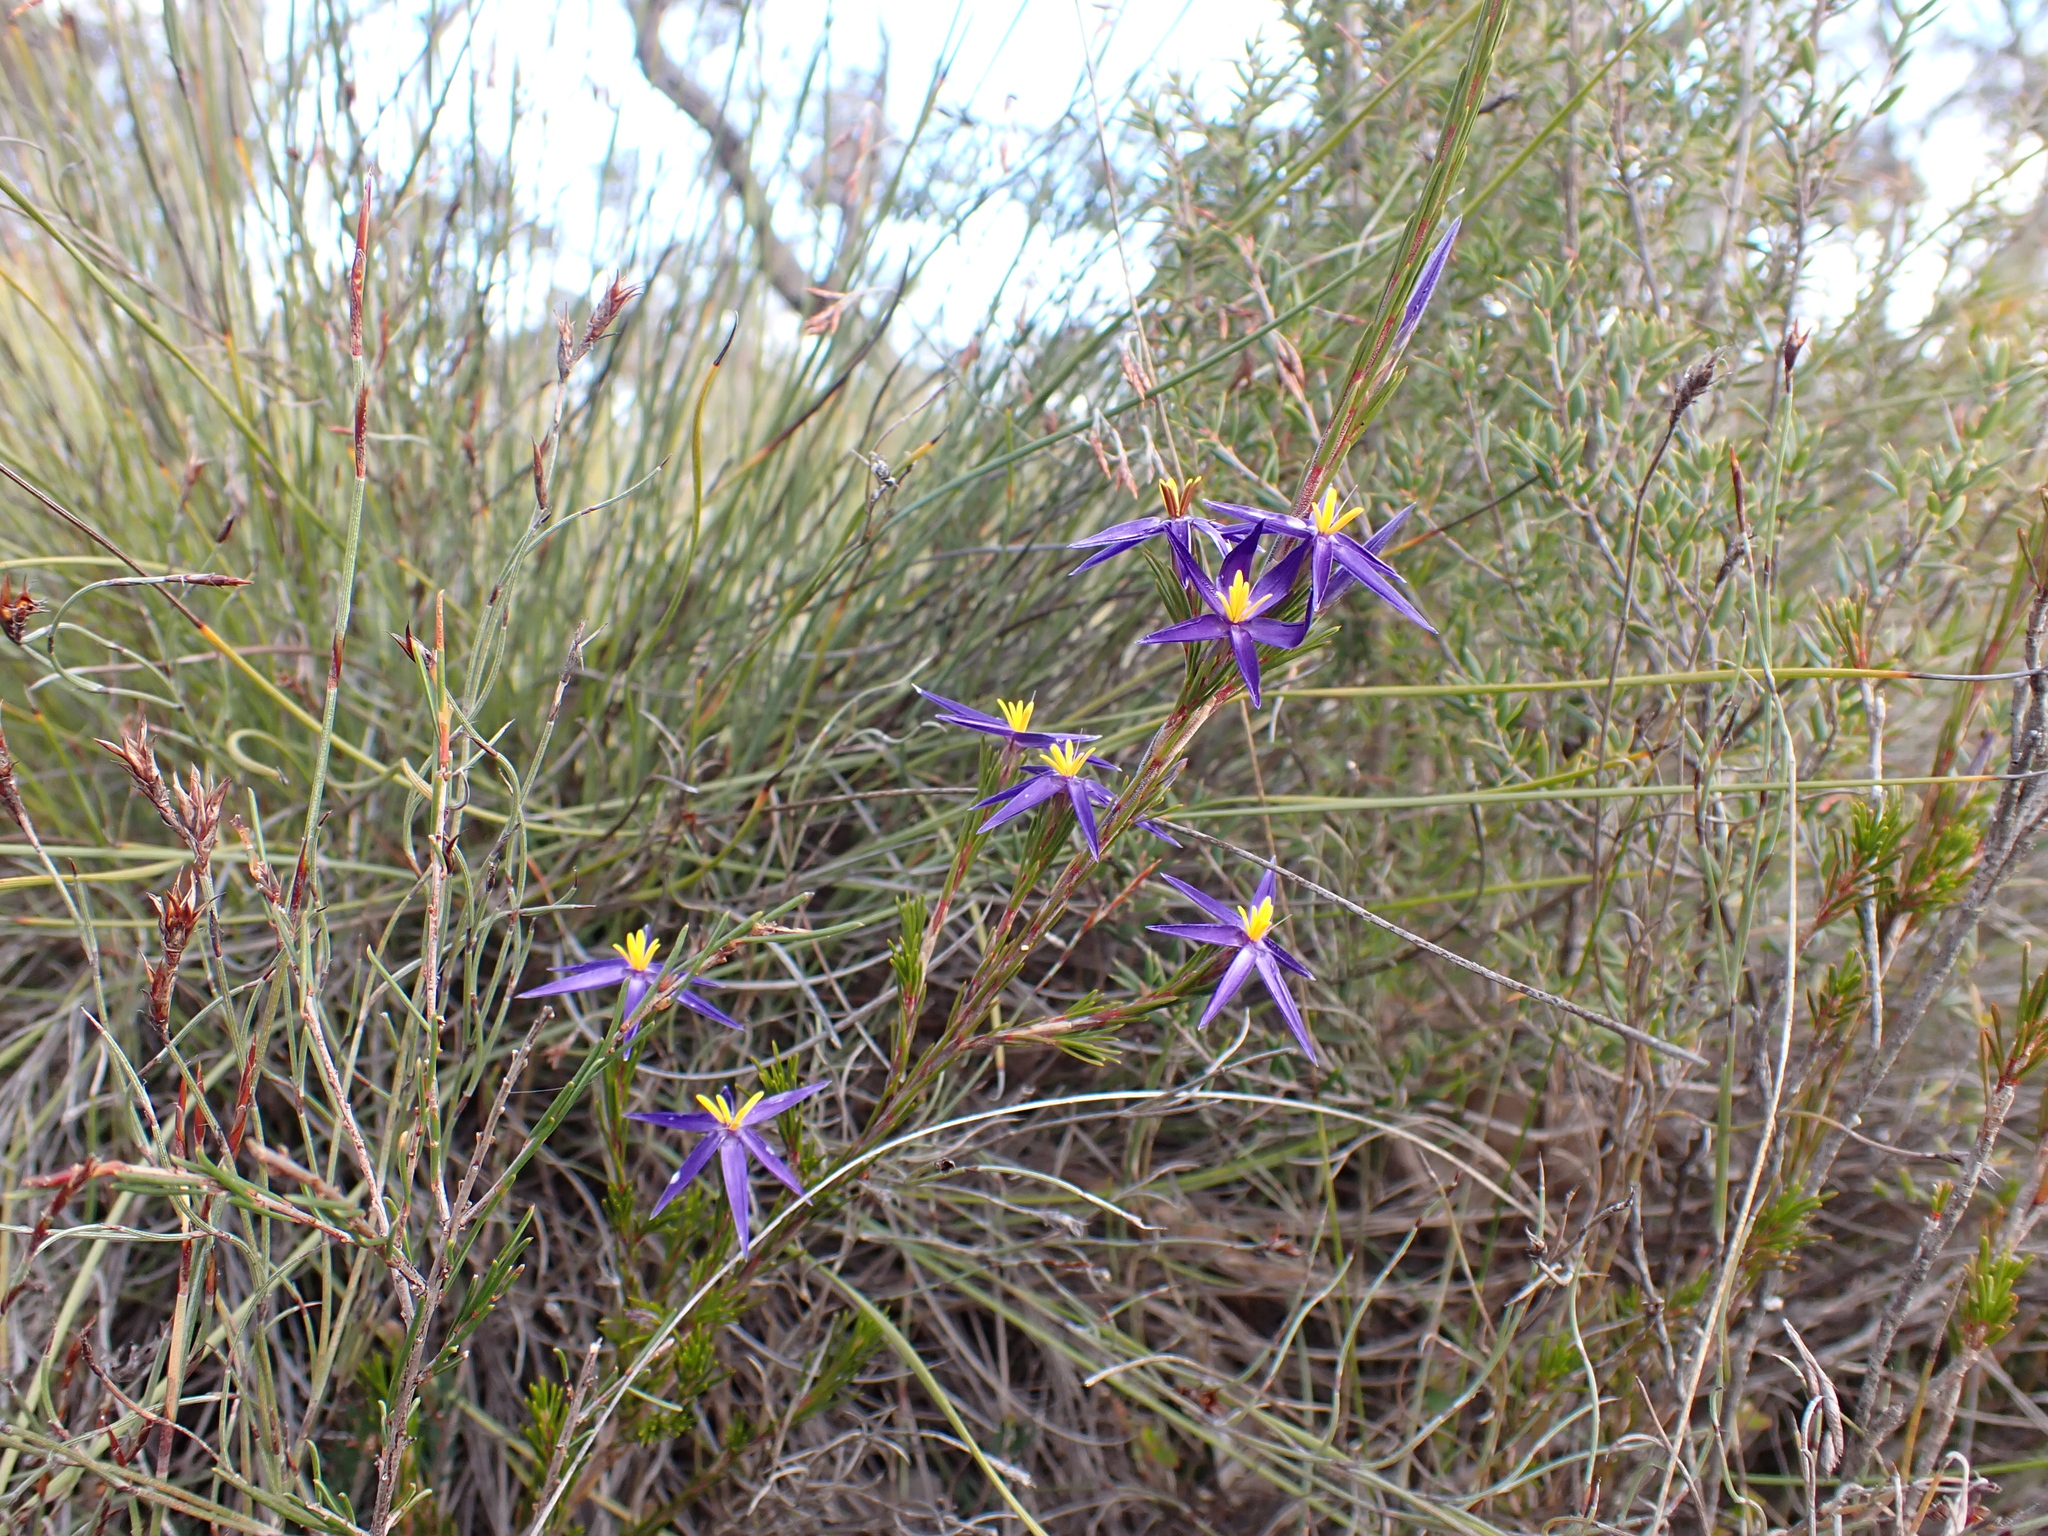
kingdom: Plantae
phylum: Tracheophyta
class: Liliopsida
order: Arecales
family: Dasypogonaceae
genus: Calectasia
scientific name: Calectasia intermedia
